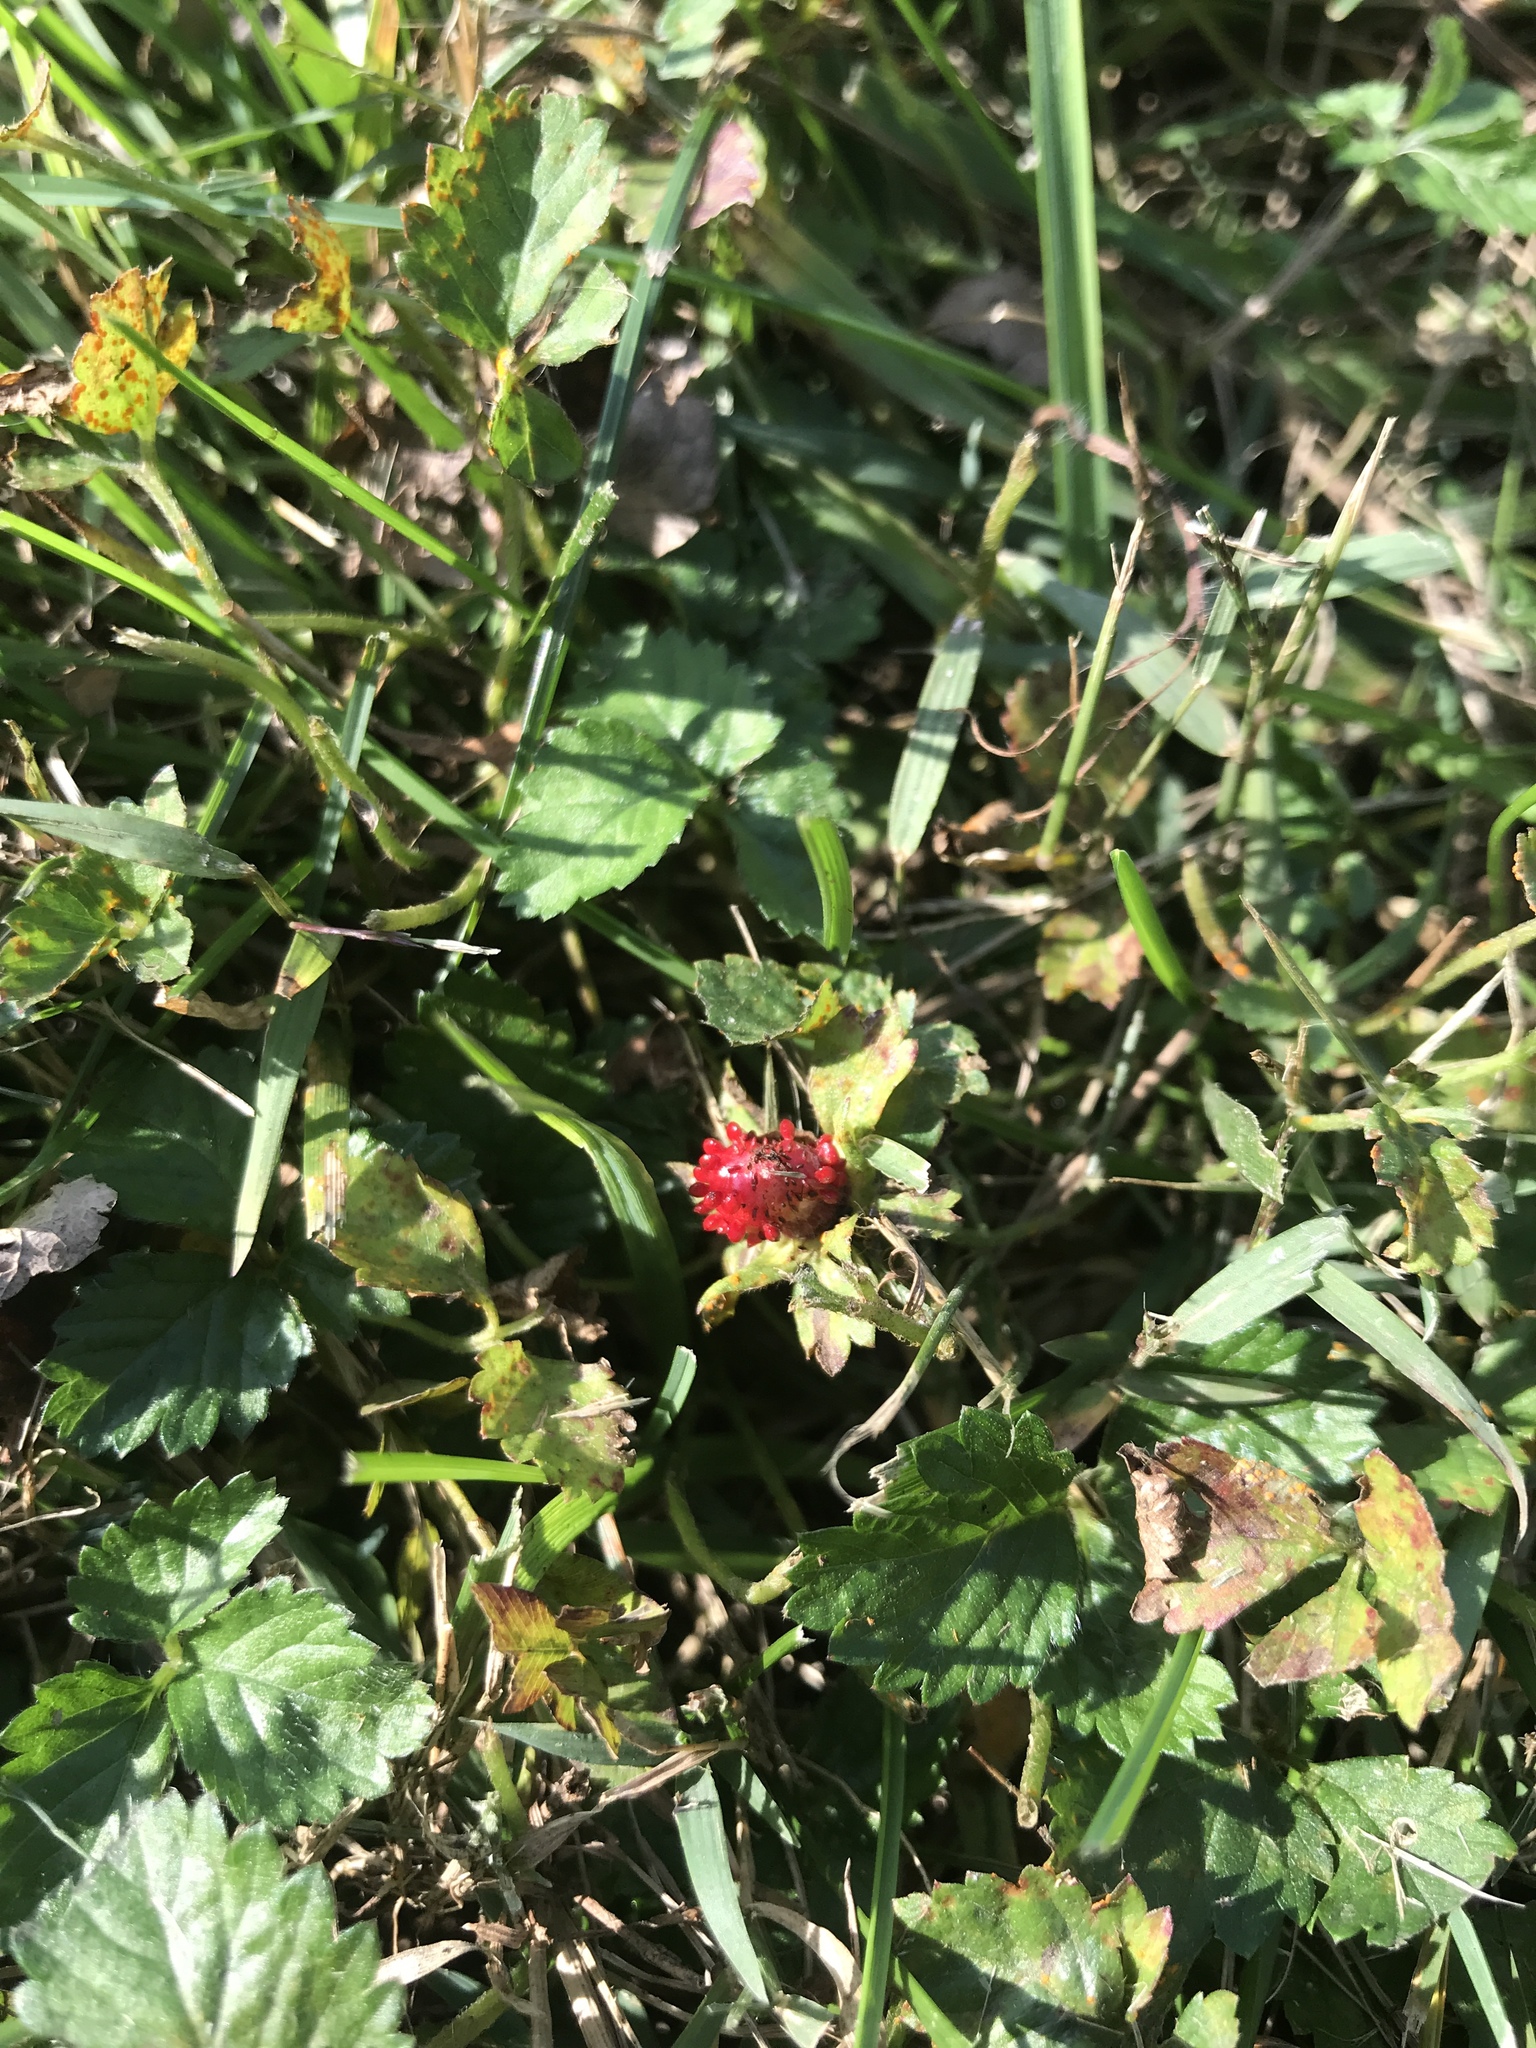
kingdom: Plantae
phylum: Tracheophyta
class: Magnoliopsida
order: Rosales
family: Rosaceae
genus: Potentilla
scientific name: Potentilla indica
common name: Yellow-flowered strawberry
